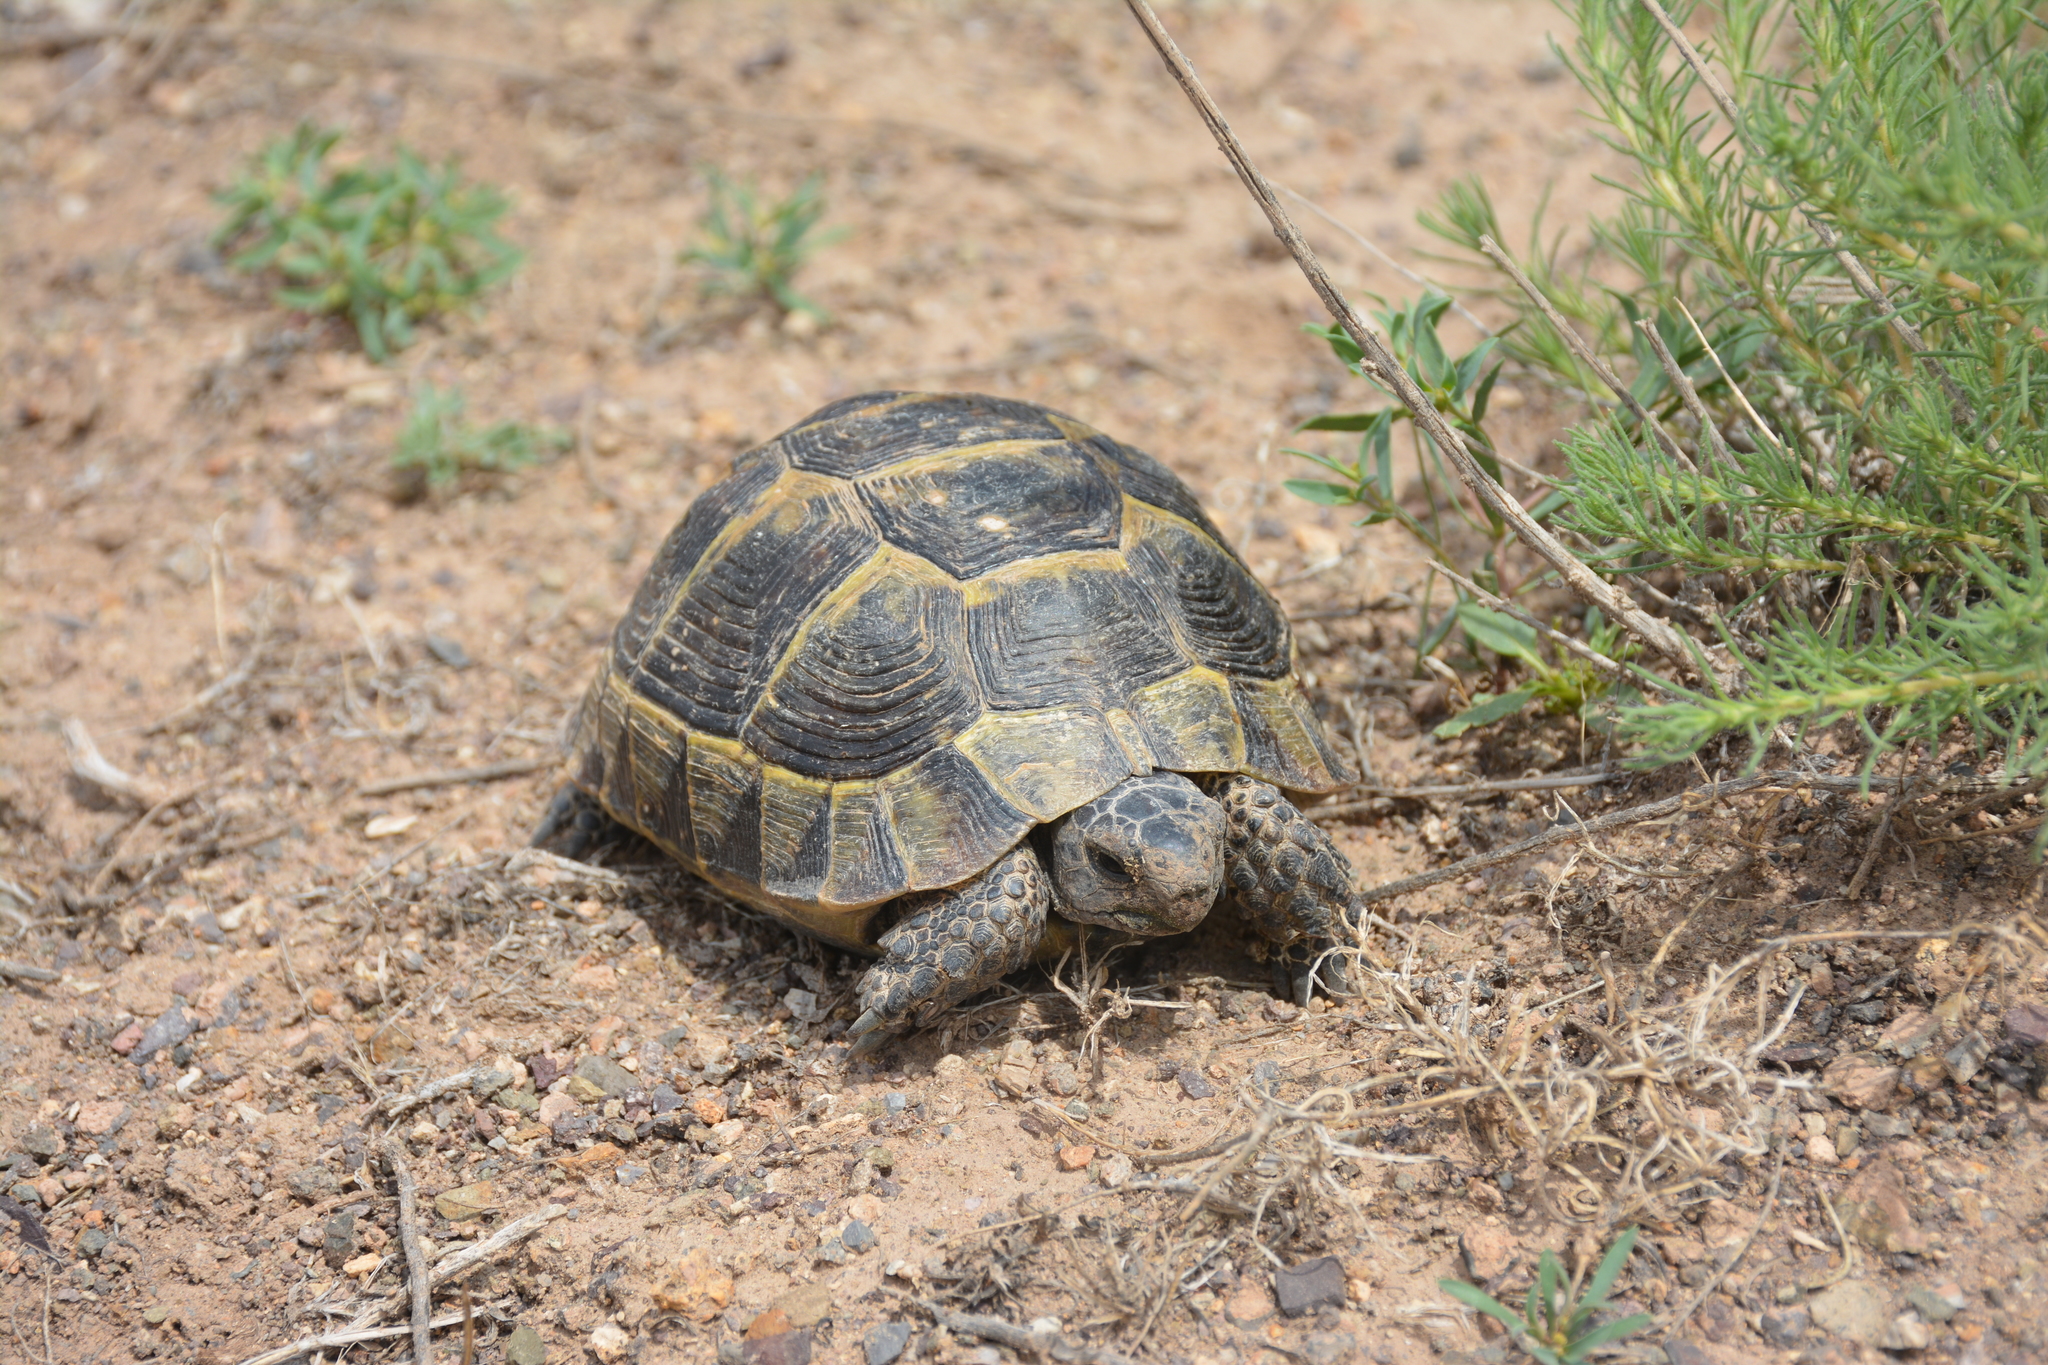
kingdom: Animalia
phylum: Chordata
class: Testudines
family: Testudinidae
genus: Testudo
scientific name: Testudo graeca
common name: Common tortoise
